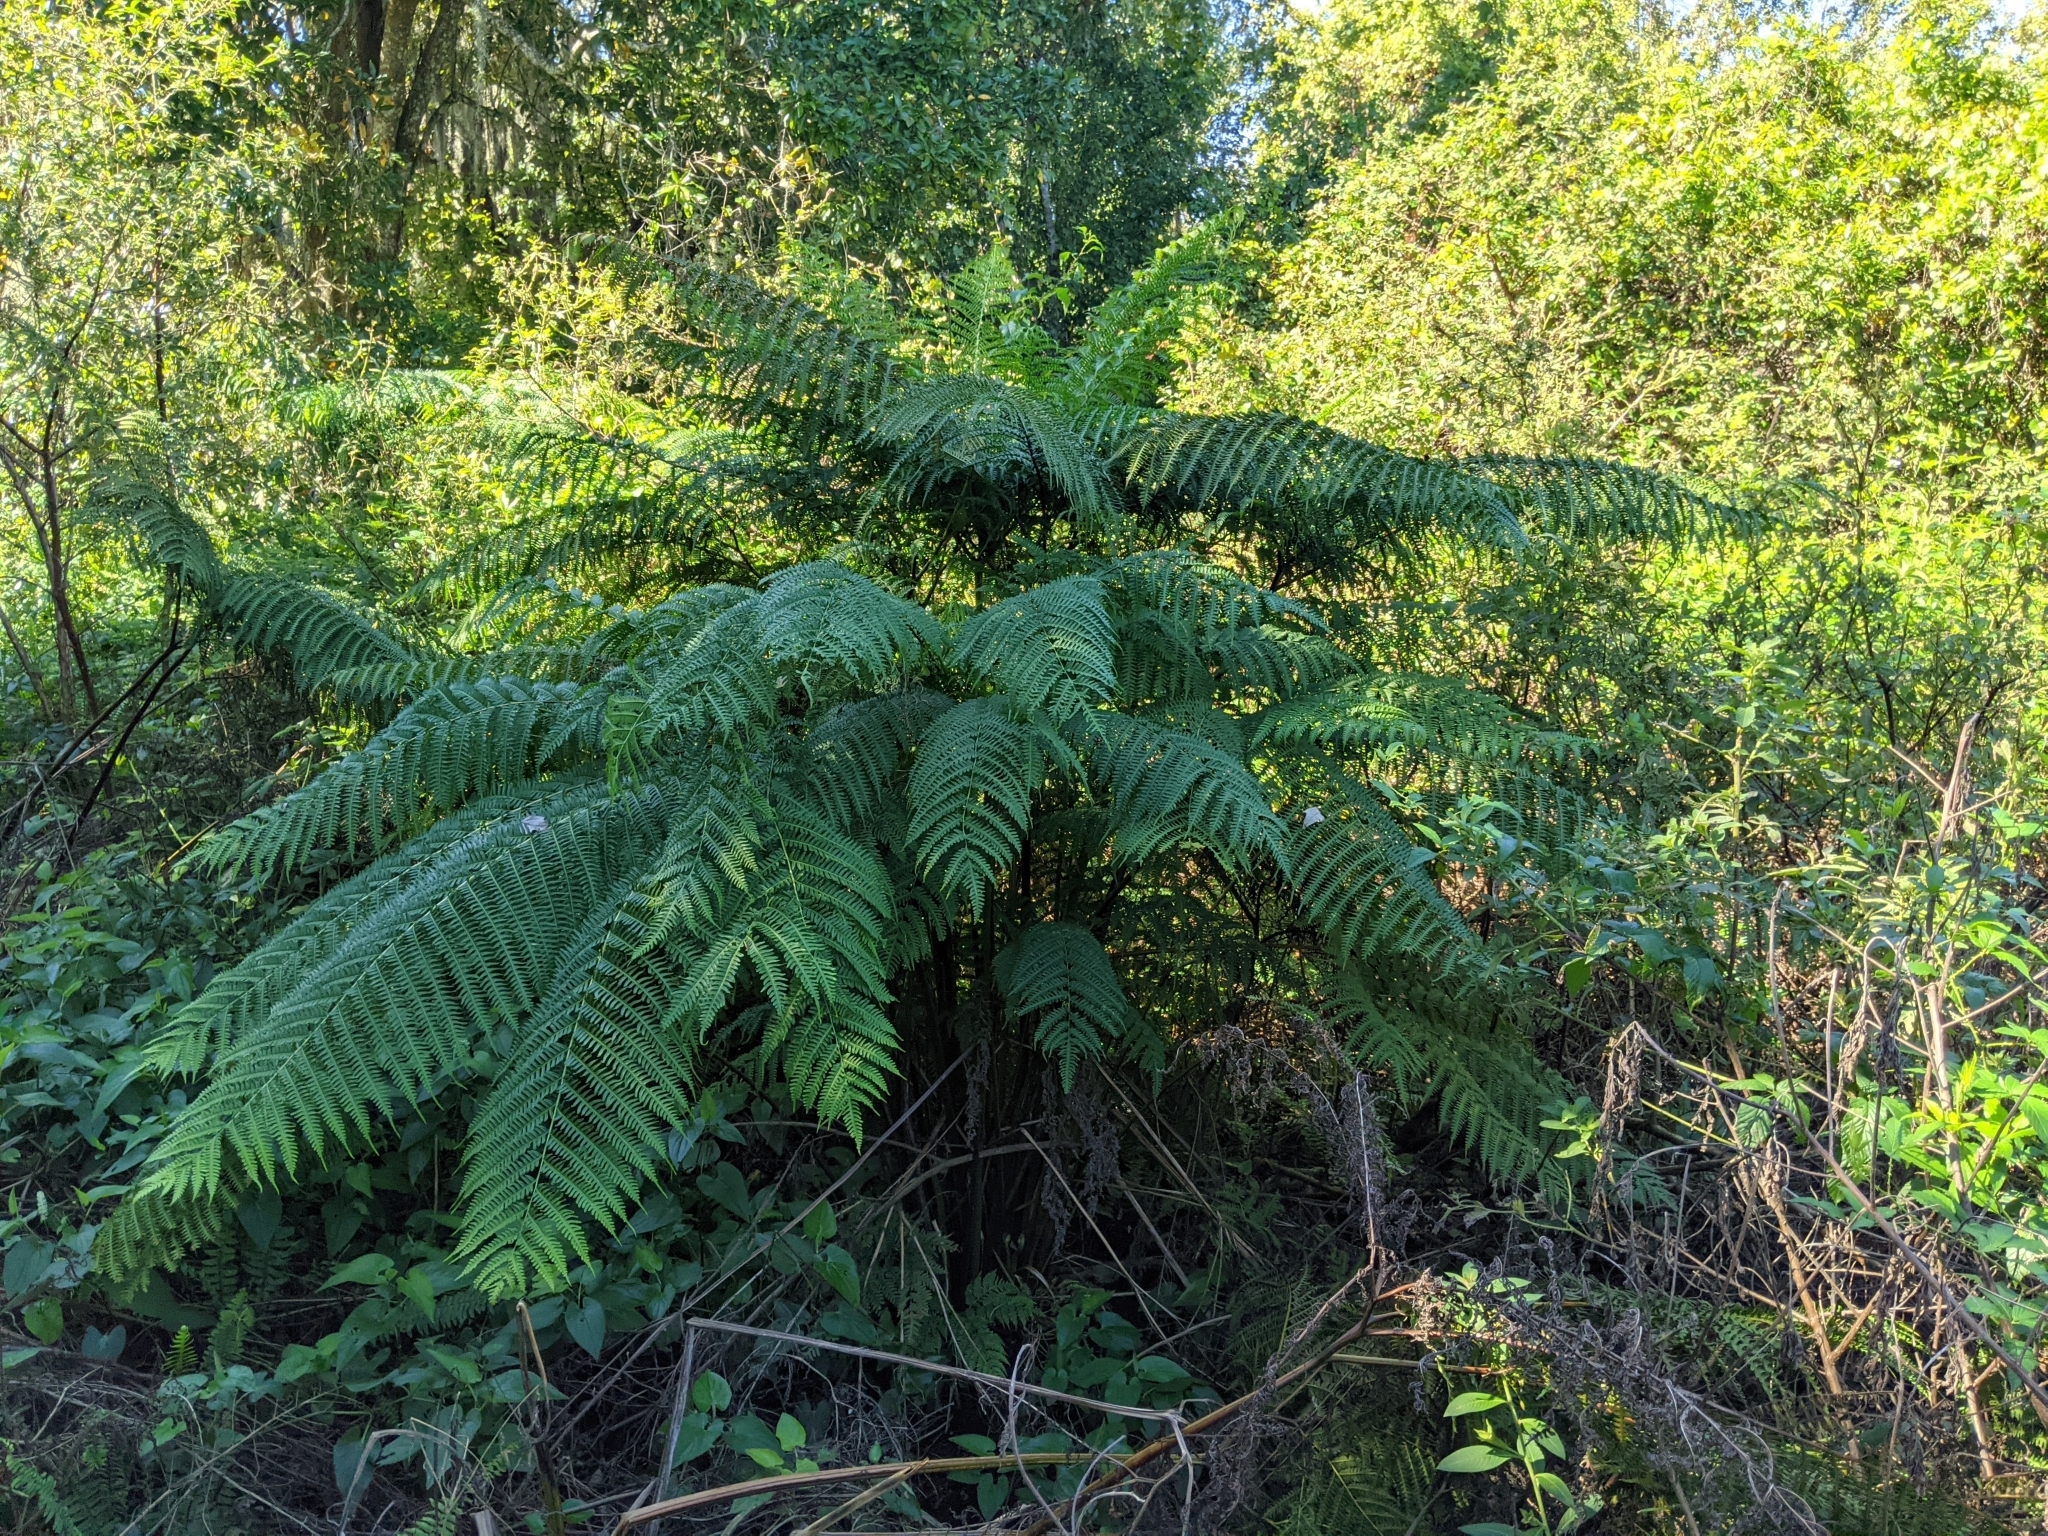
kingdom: Plantae
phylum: Tracheophyta
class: Polypodiopsida
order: Polypodiales
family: Pteridaceae
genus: Pteris
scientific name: Pteris tripartita
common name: Giant brake
